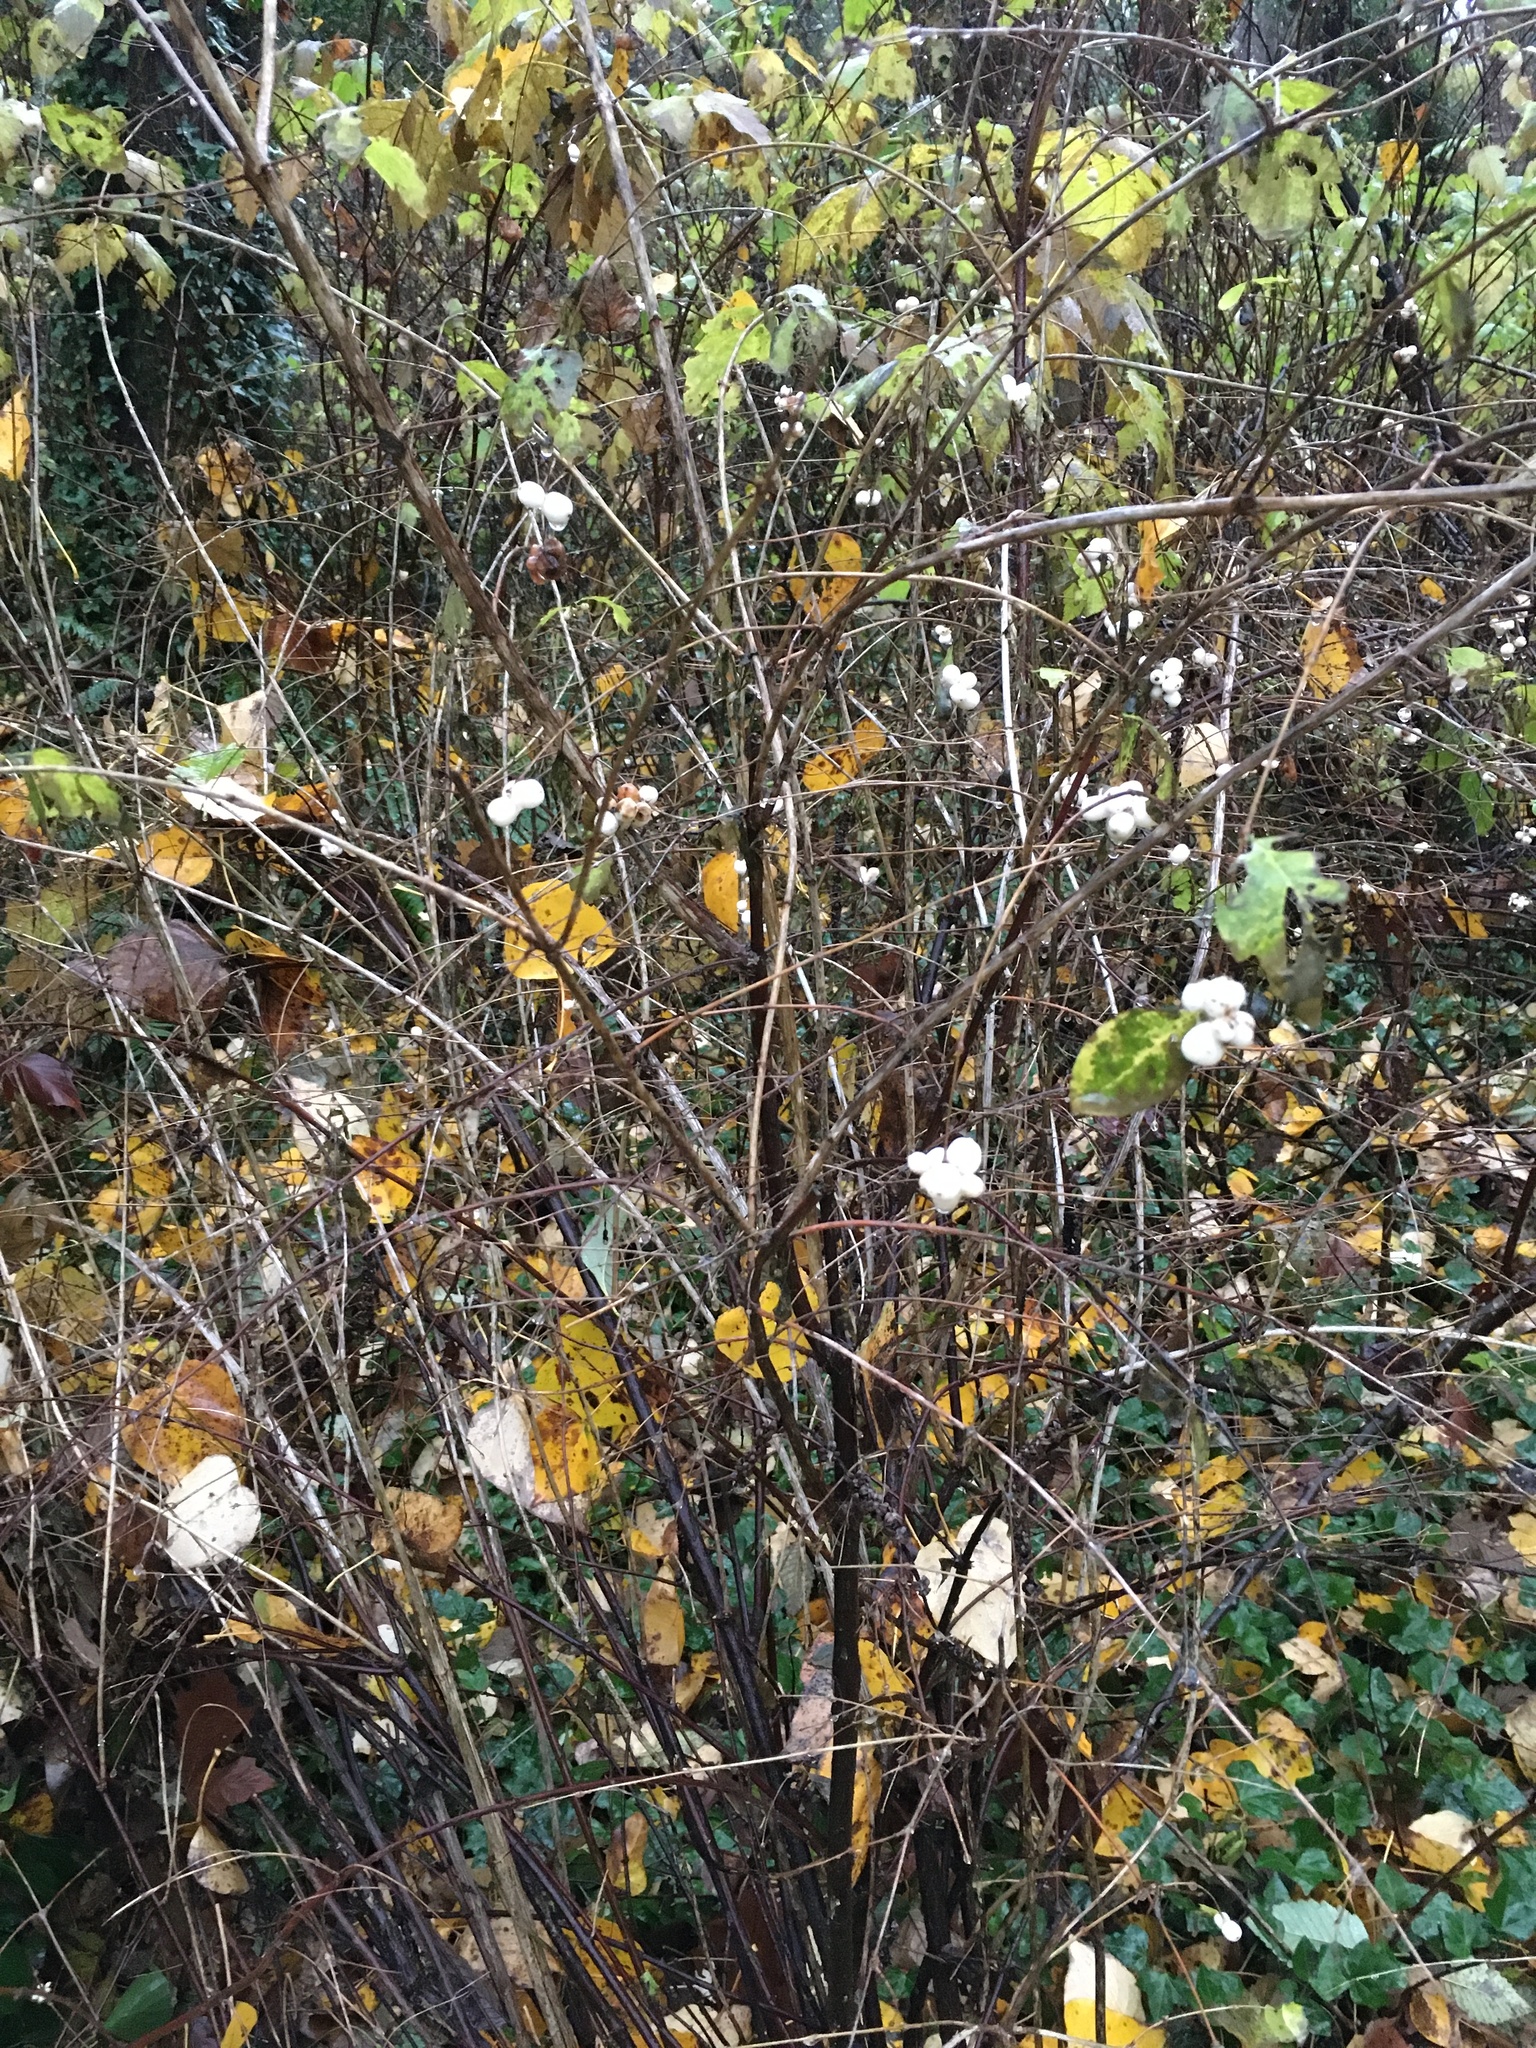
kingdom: Plantae
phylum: Tracheophyta
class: Magnoliopsida
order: Dipsacales
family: Caprifoliaceae
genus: Symphoricarpos
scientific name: Symphoricarpos albus
